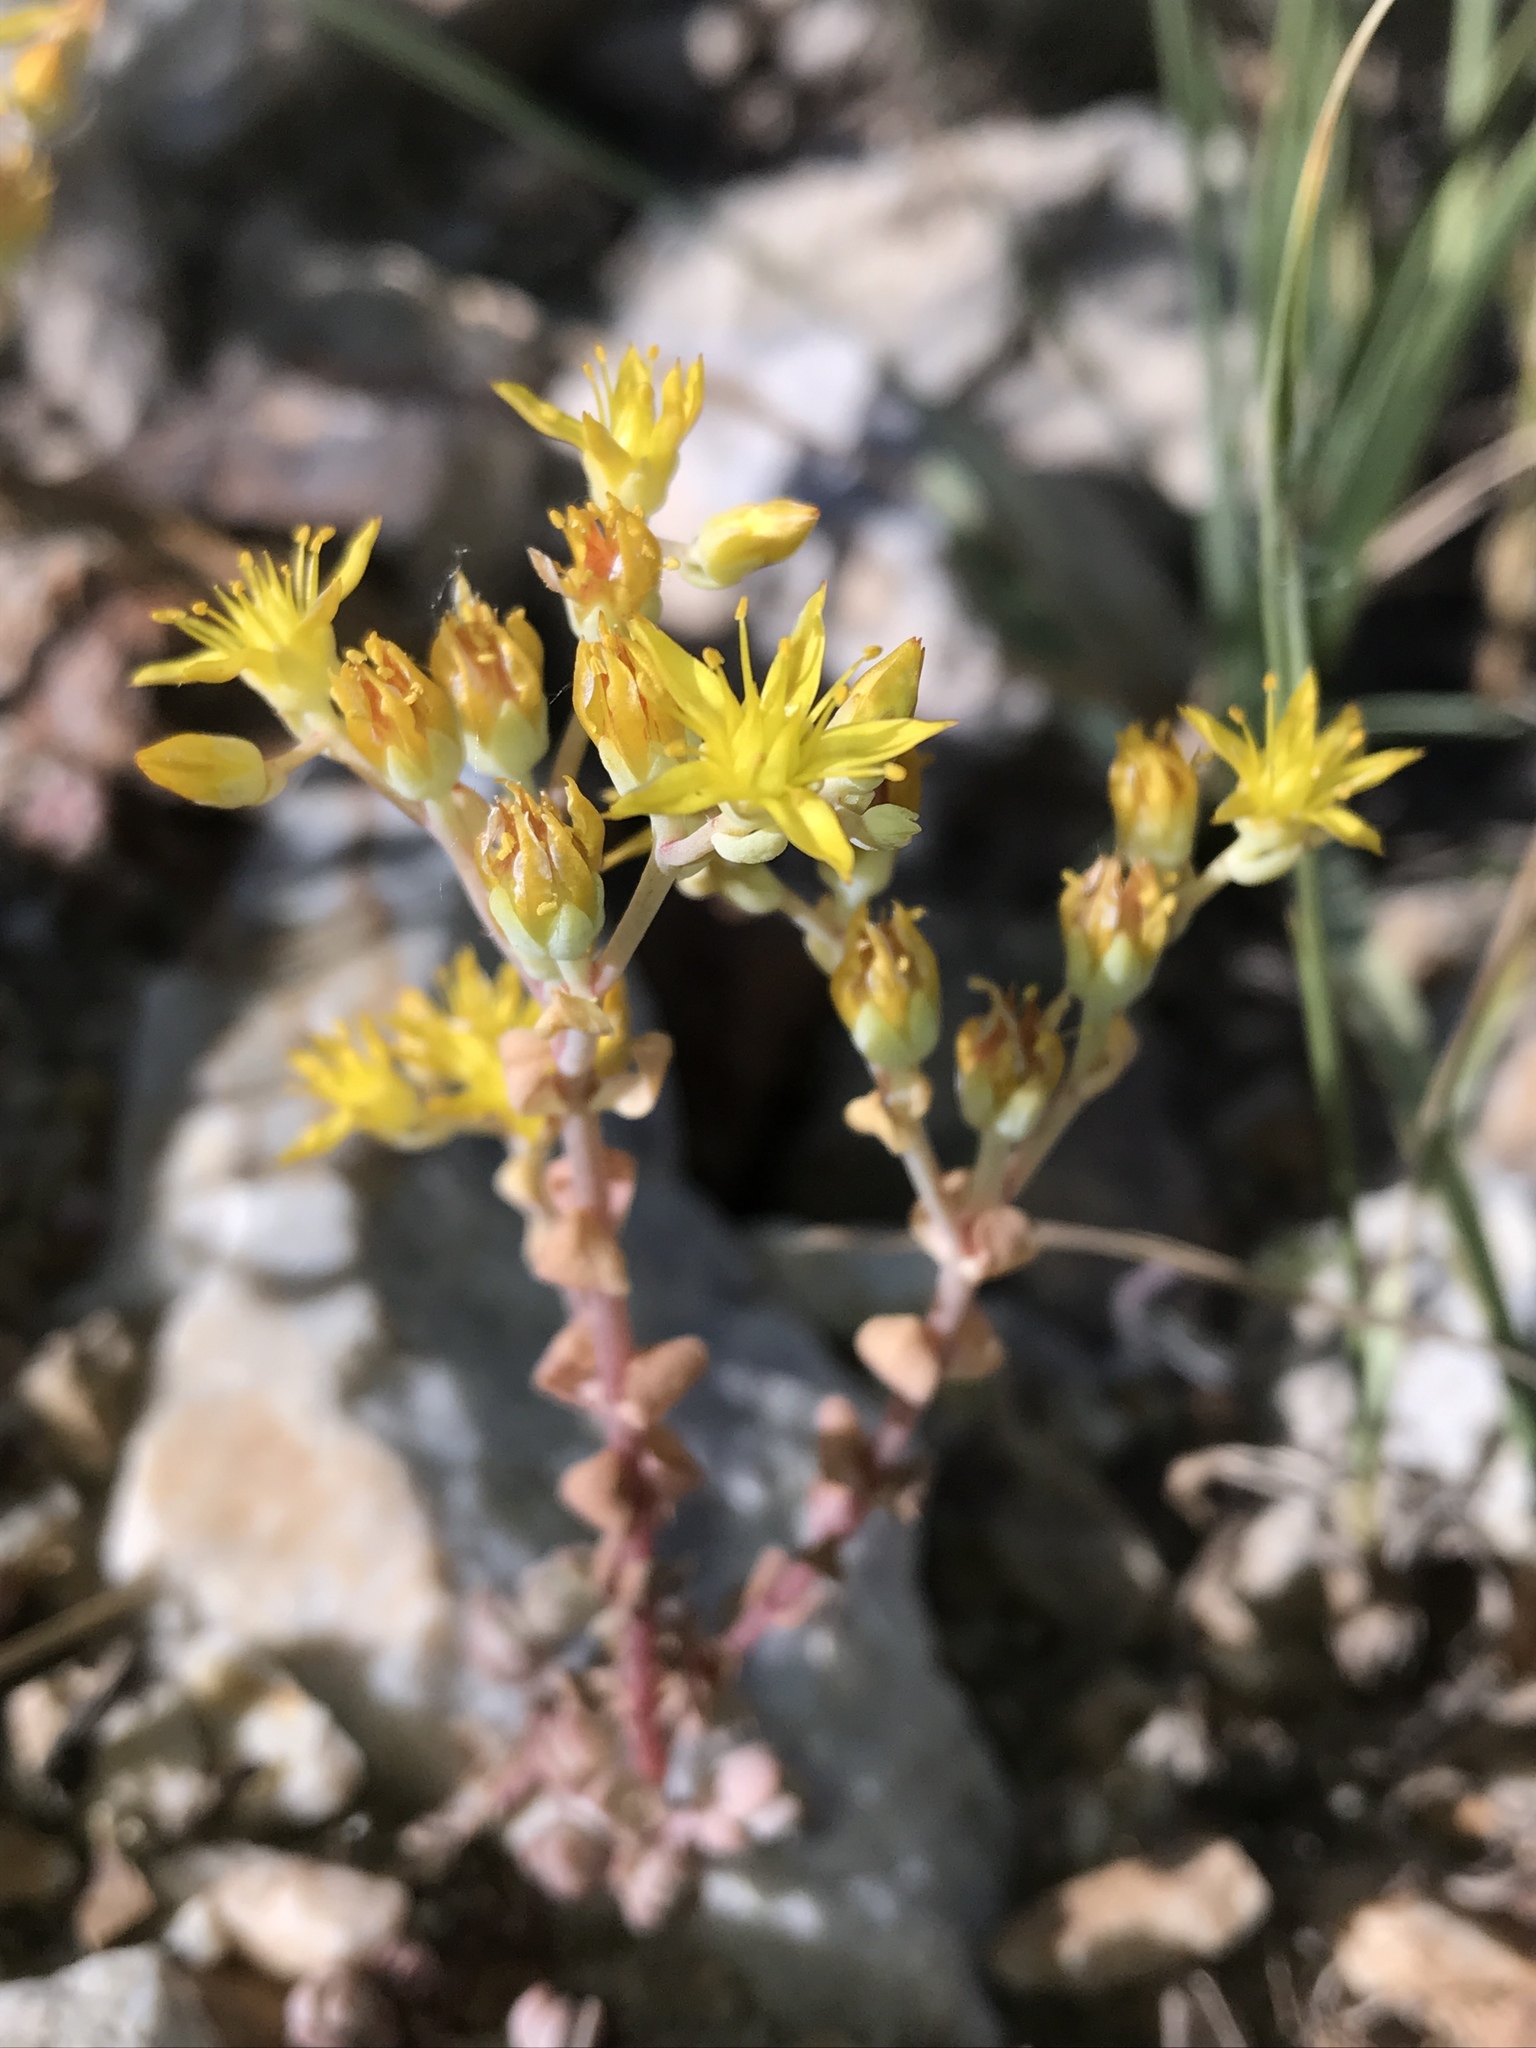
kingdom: Plantae
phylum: Tracheophyta
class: Magnoliopsida
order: Saxifragales
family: Crassulaceae
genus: Sedum
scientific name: Sedum debile
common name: Weak-stem stonecrop
